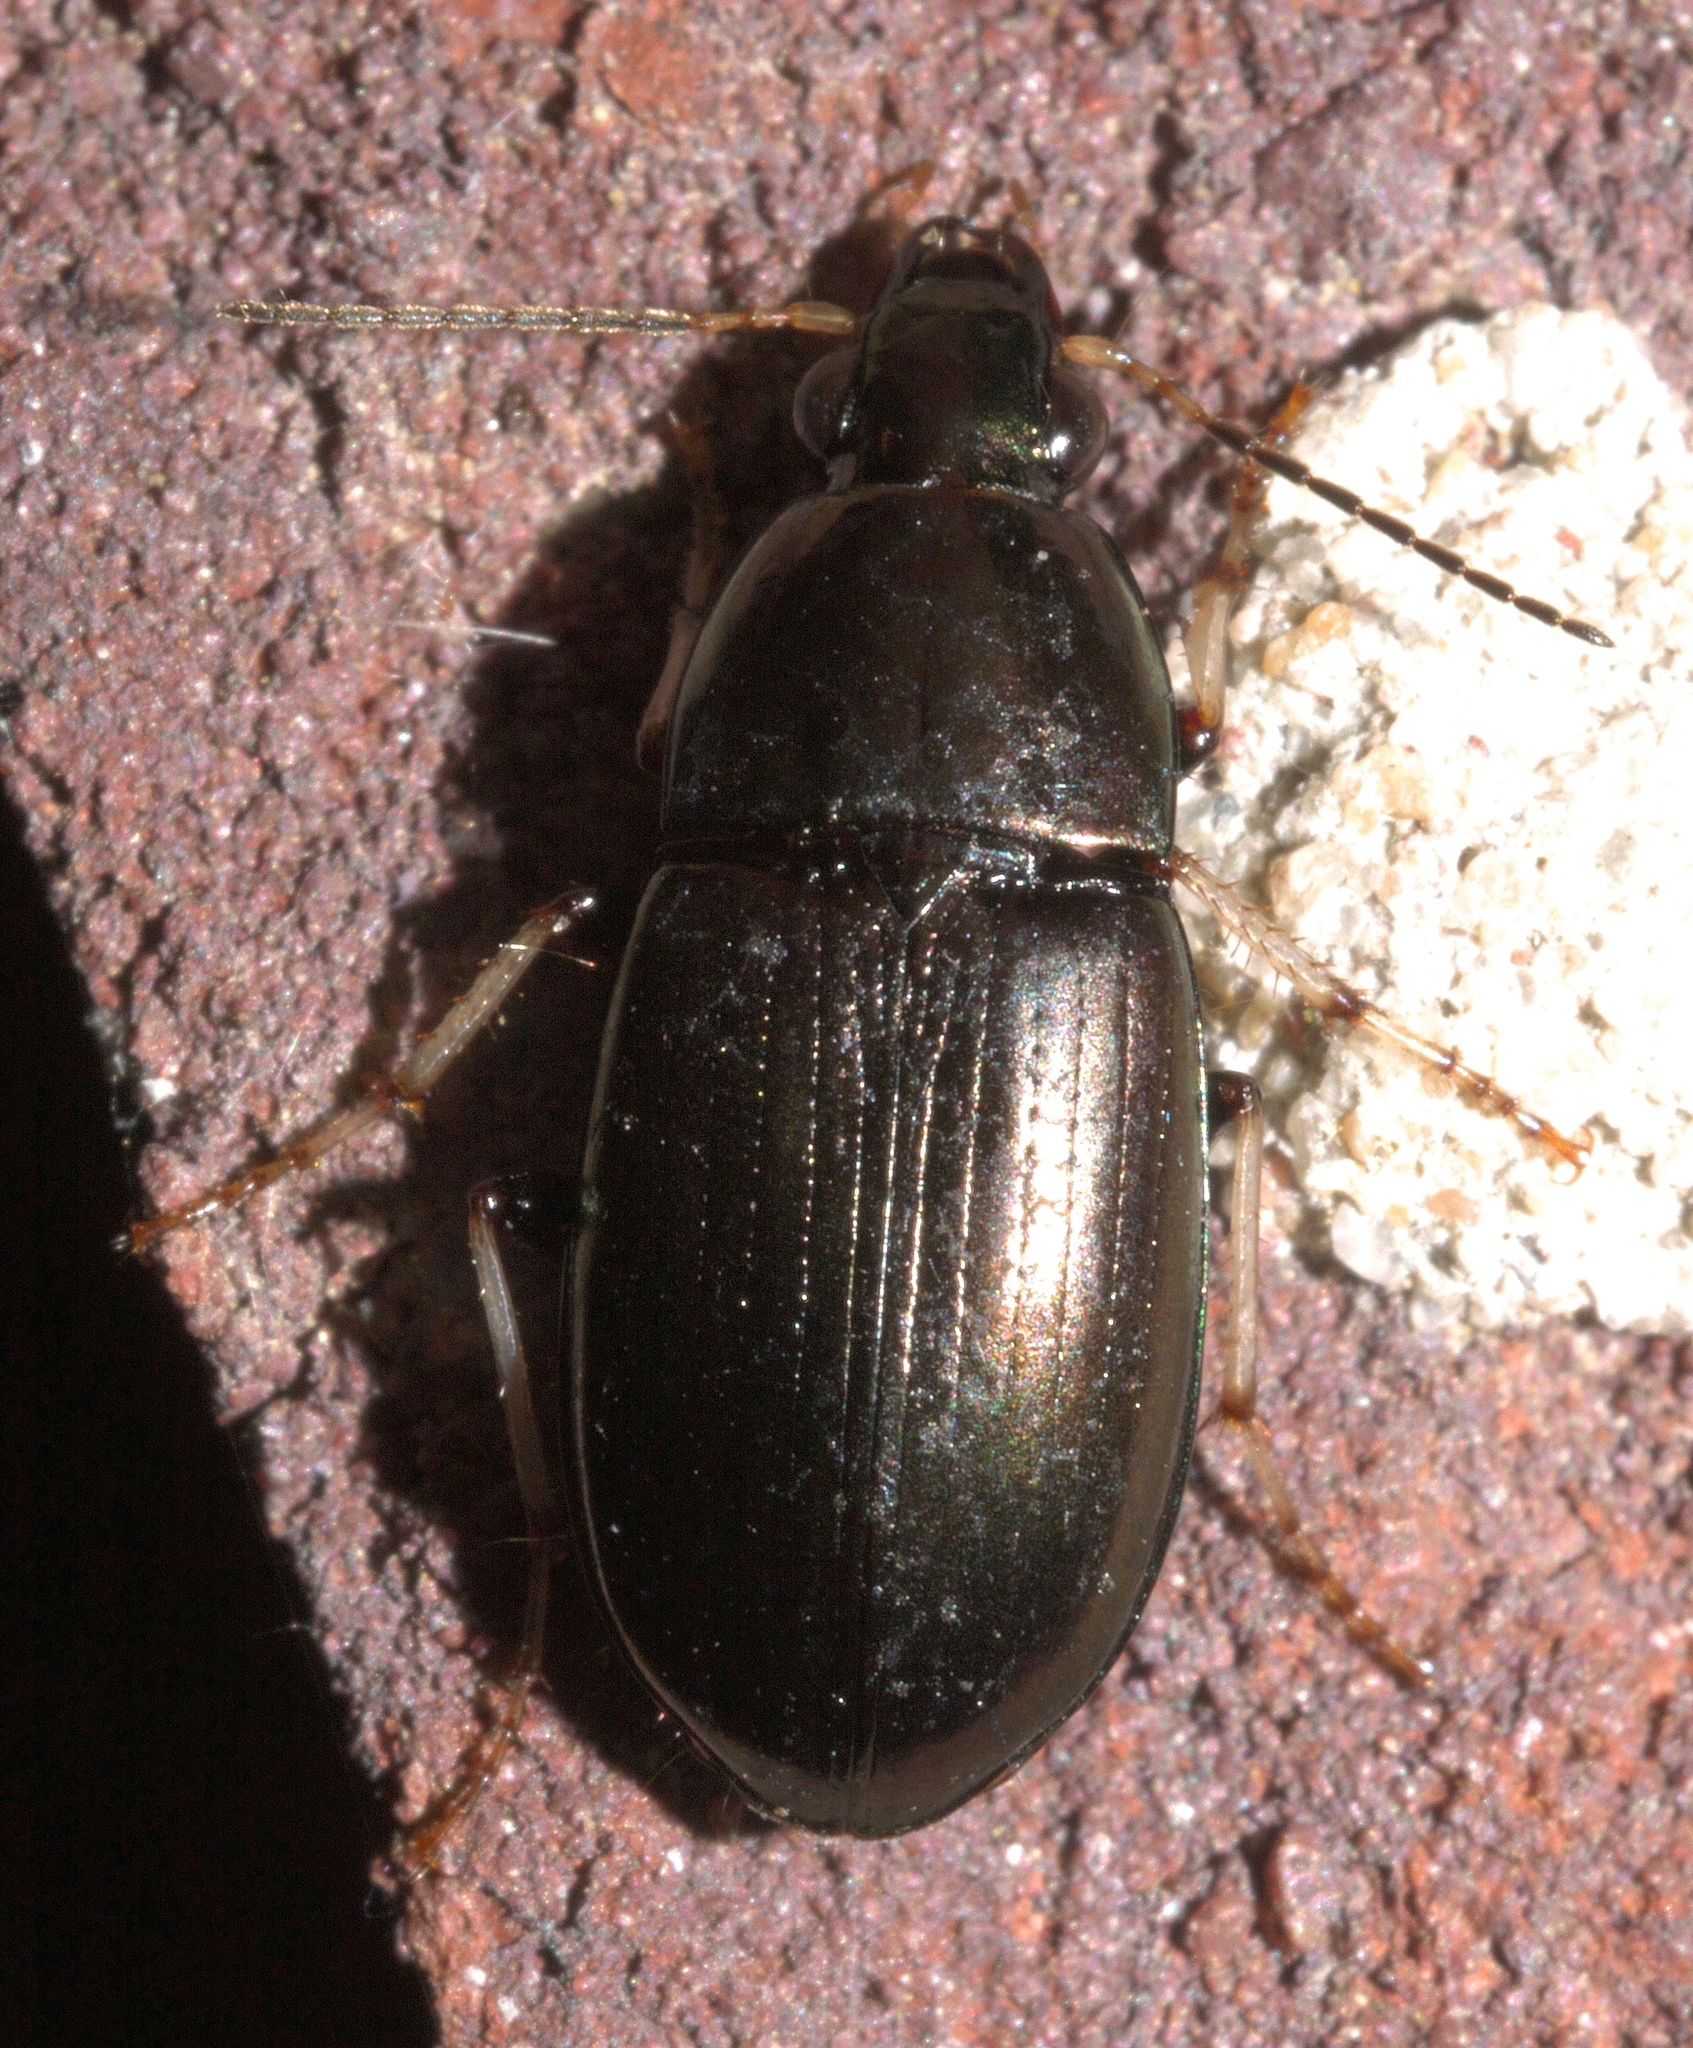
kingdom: Animalia
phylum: Arthropoda
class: Insecta
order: Coleoptera
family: Carabidae
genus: Stenocrepis
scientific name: Stenocrepis cuprea
